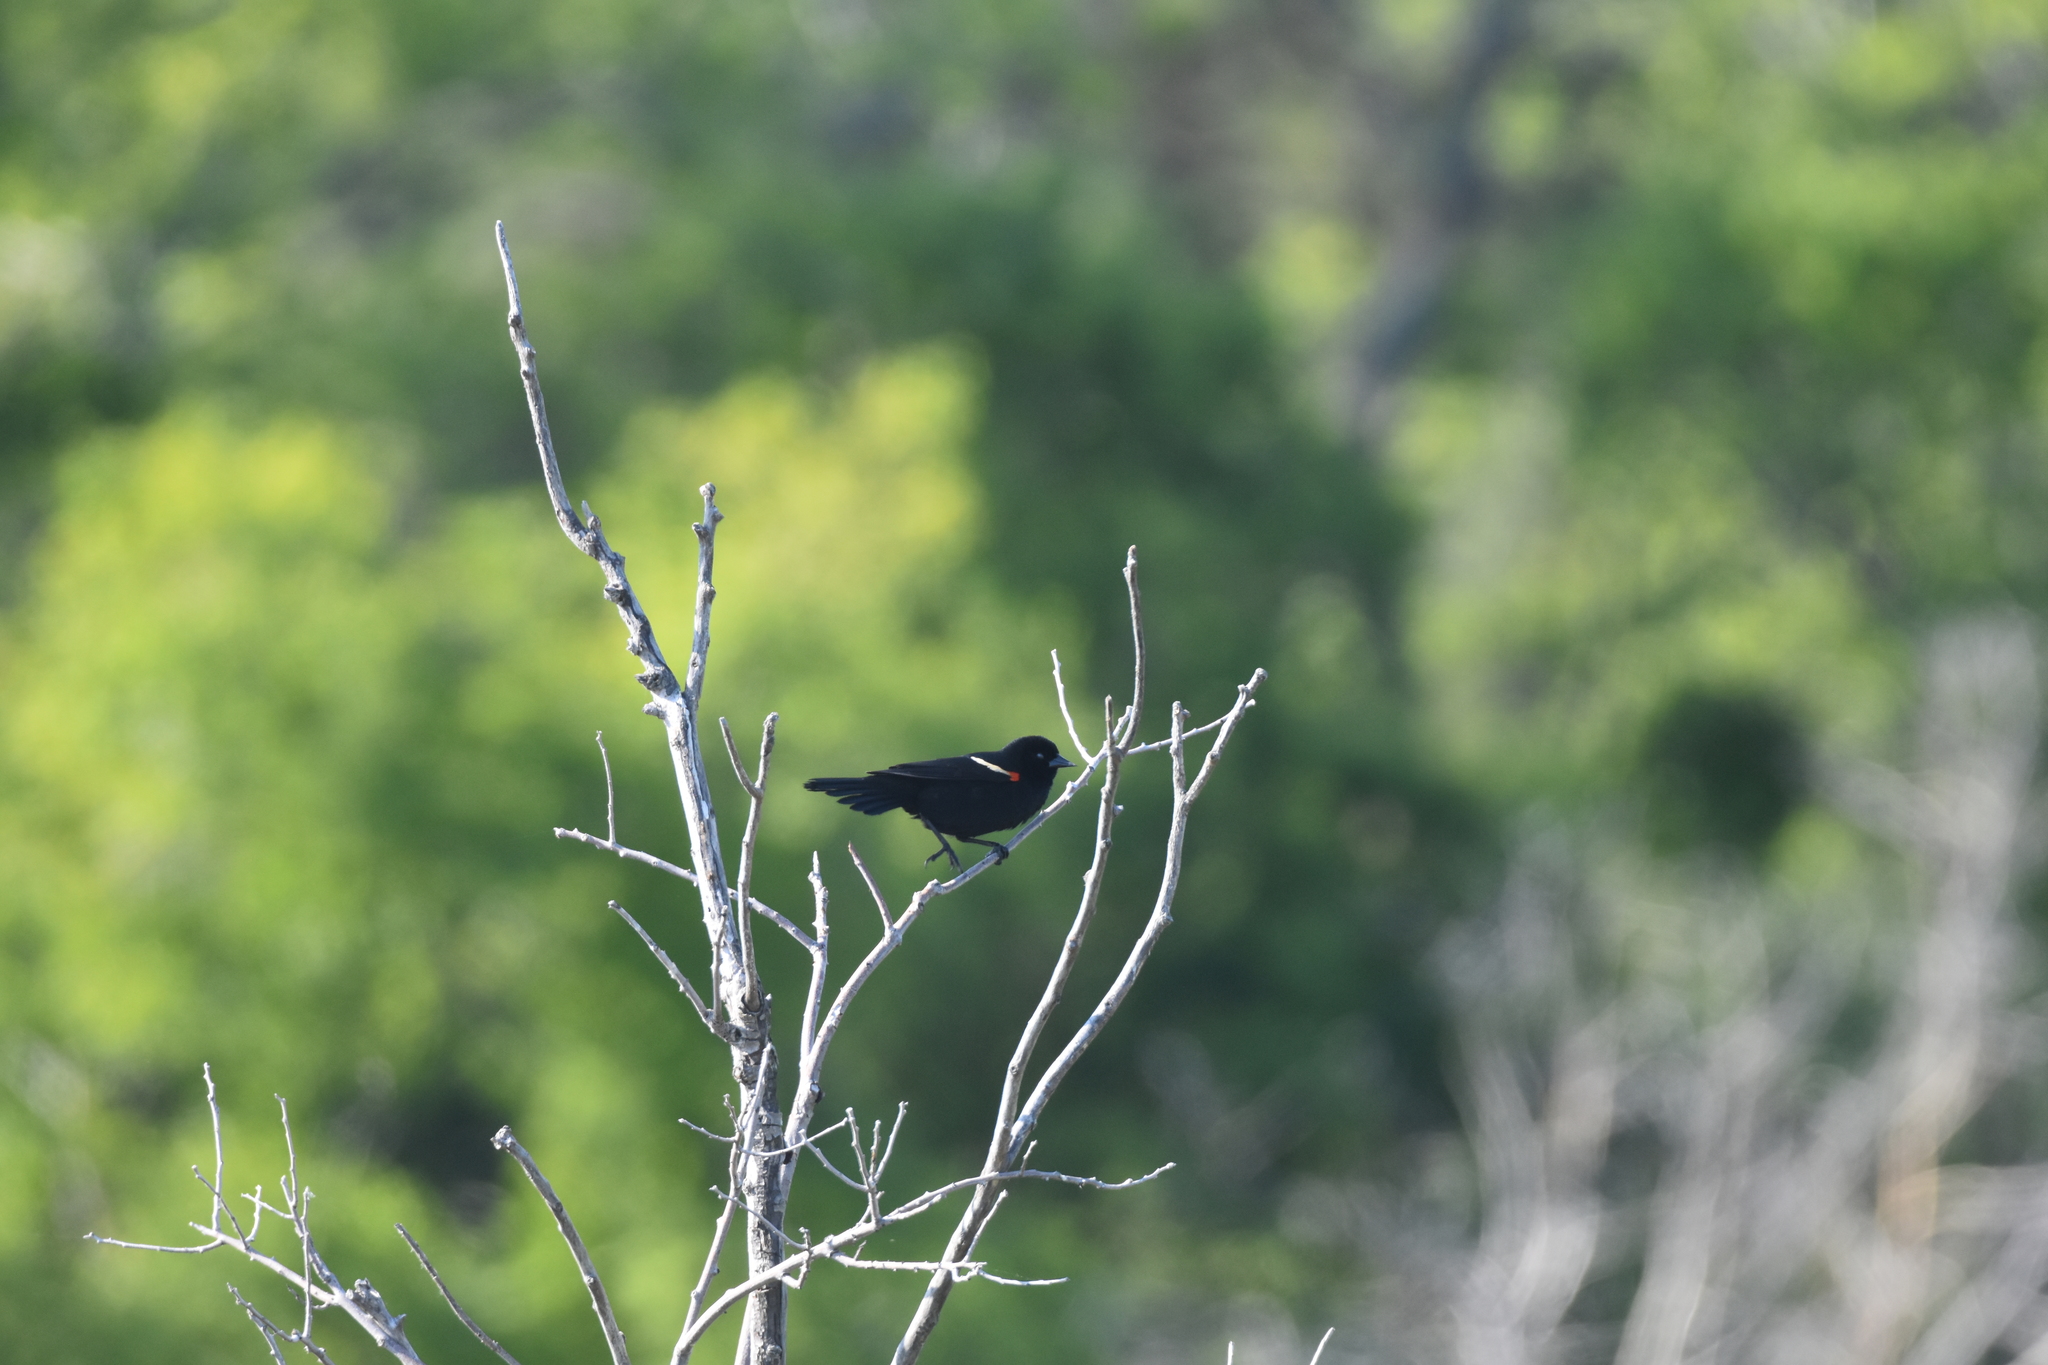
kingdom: Animalia
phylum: Chordata
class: Aves
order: Passeriformes
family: Icteridae
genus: Agelaius
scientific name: Agelaius phoeniceus
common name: Red-winged blackbird
